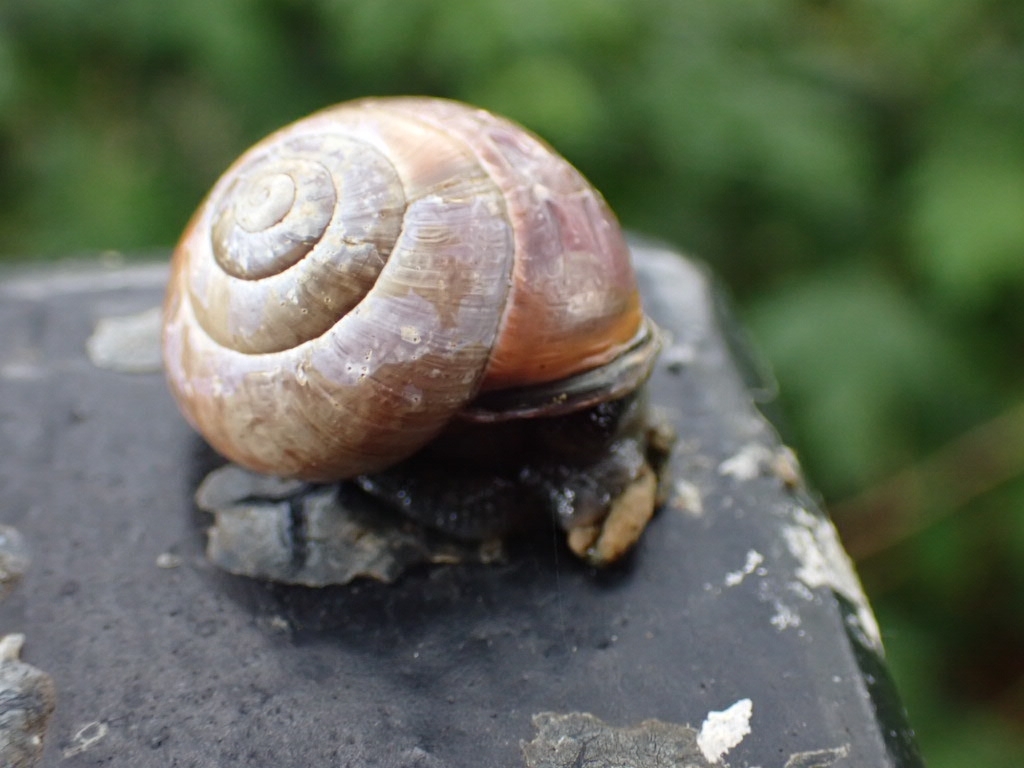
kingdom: Animalia
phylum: Mollusca
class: Gastropoda
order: Stylommatophora
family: Helicidae
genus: Cepaea
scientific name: Cepaea nemoralis
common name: Grovesnail
